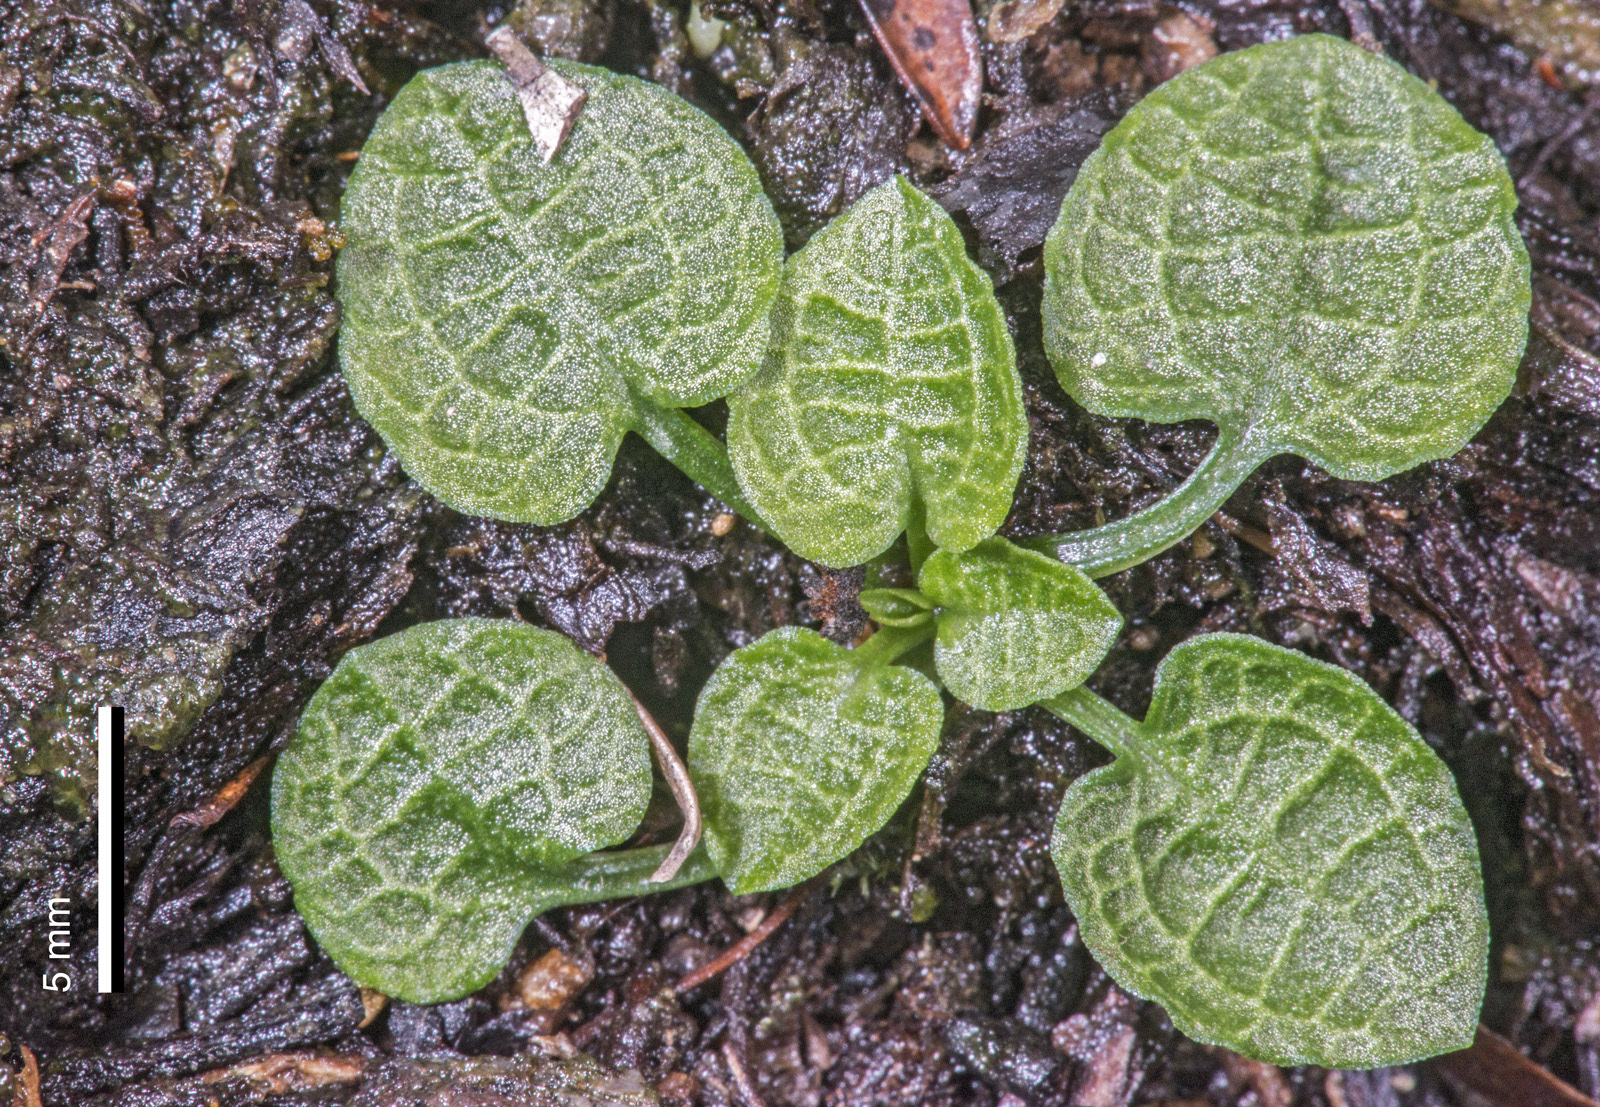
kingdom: Plantae
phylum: Tracheophyta
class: Liliopsida
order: Asparagales
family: Orchidaceae
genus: Pterostylis
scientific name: Pterostylis trullifolia
